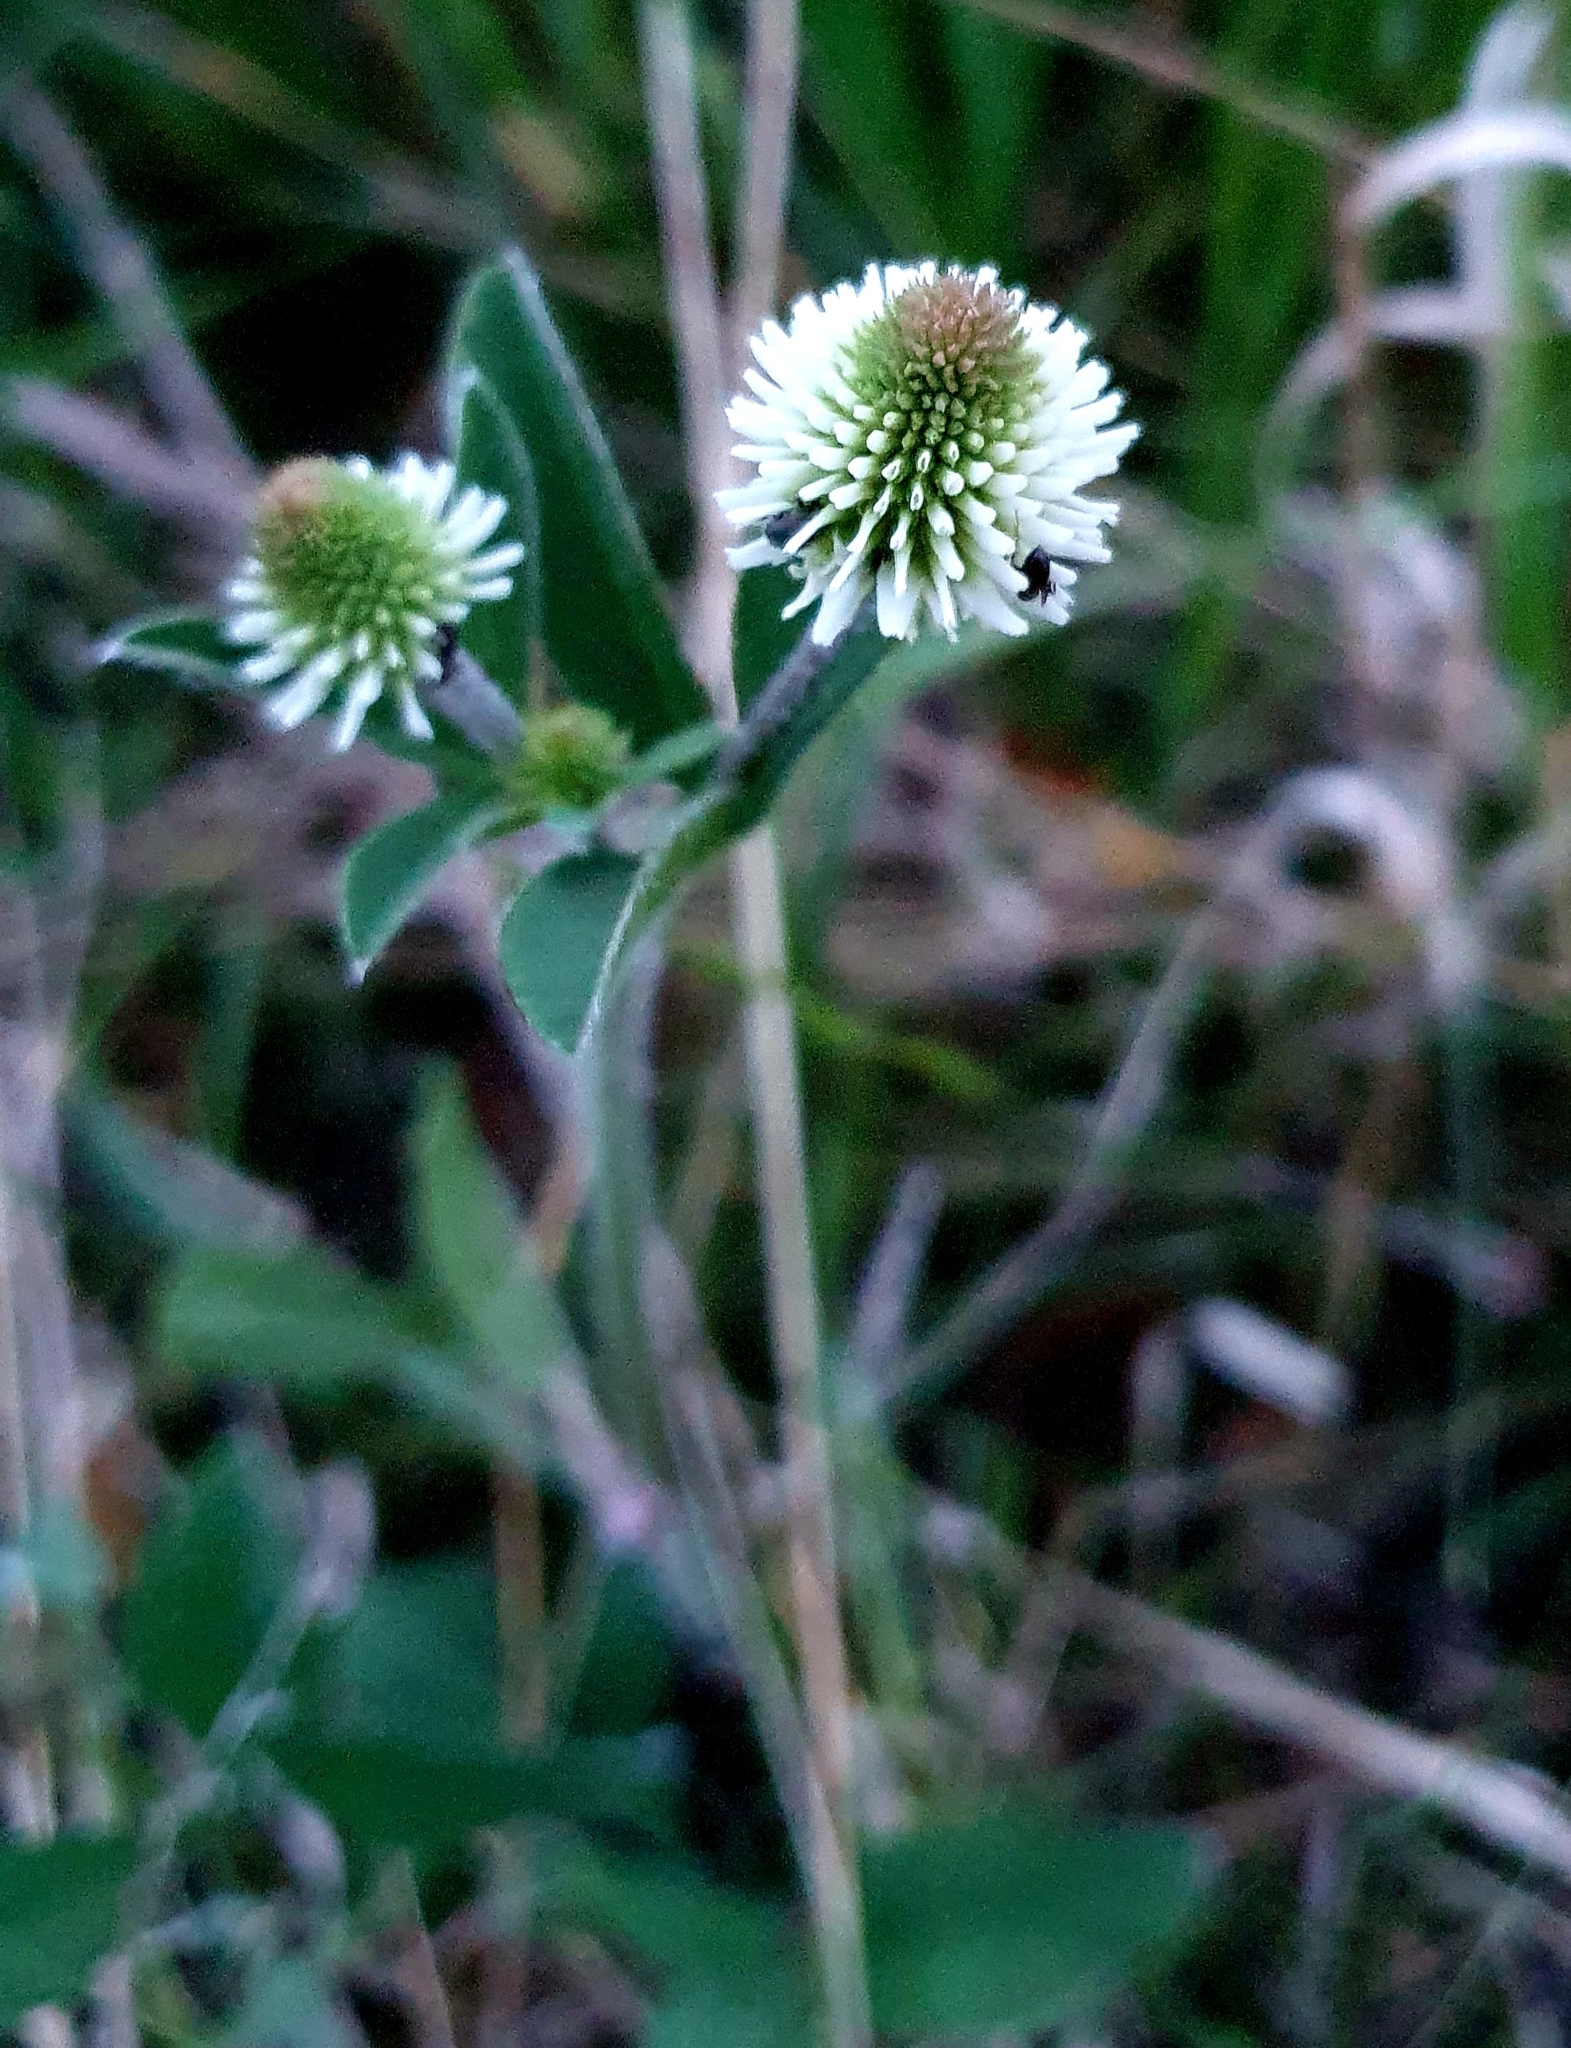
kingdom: Plantae
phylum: Tracheophyta
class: Magnoliopsida
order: Fabales
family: Fabaceae
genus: Trifolium
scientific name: Trifolium montanum
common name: Mountain clover
